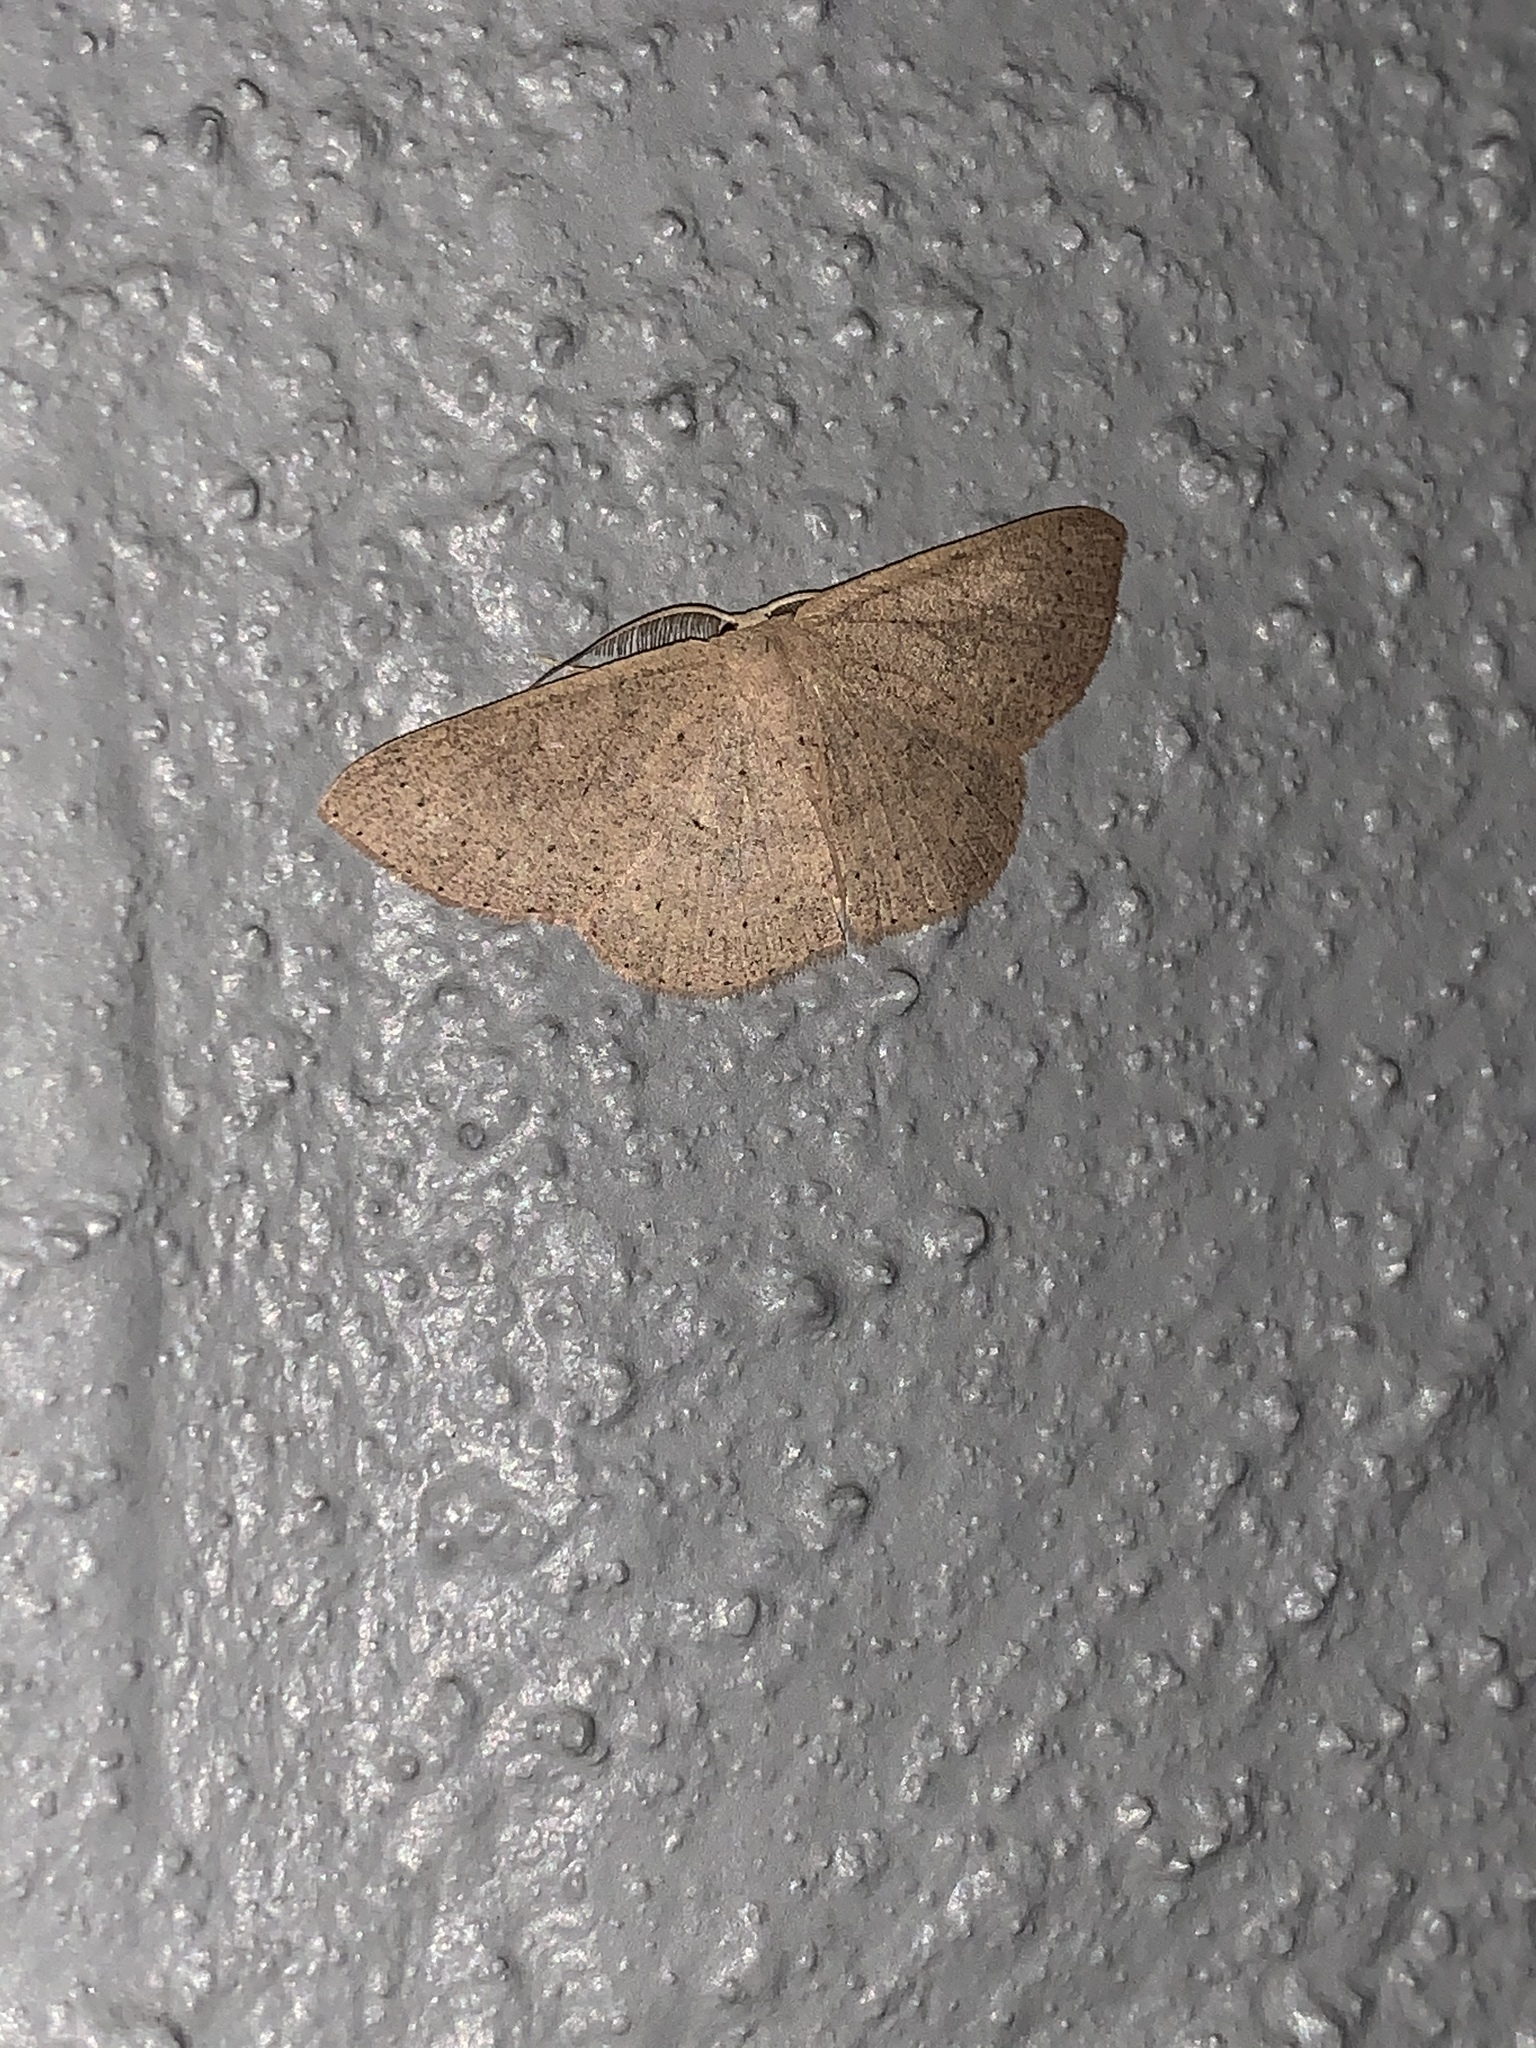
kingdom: Animalia
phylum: Arthropoda
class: Insecta
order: Lepidoptera
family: Geometridae
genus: Cyclophora
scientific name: Cyclophora obstataria
